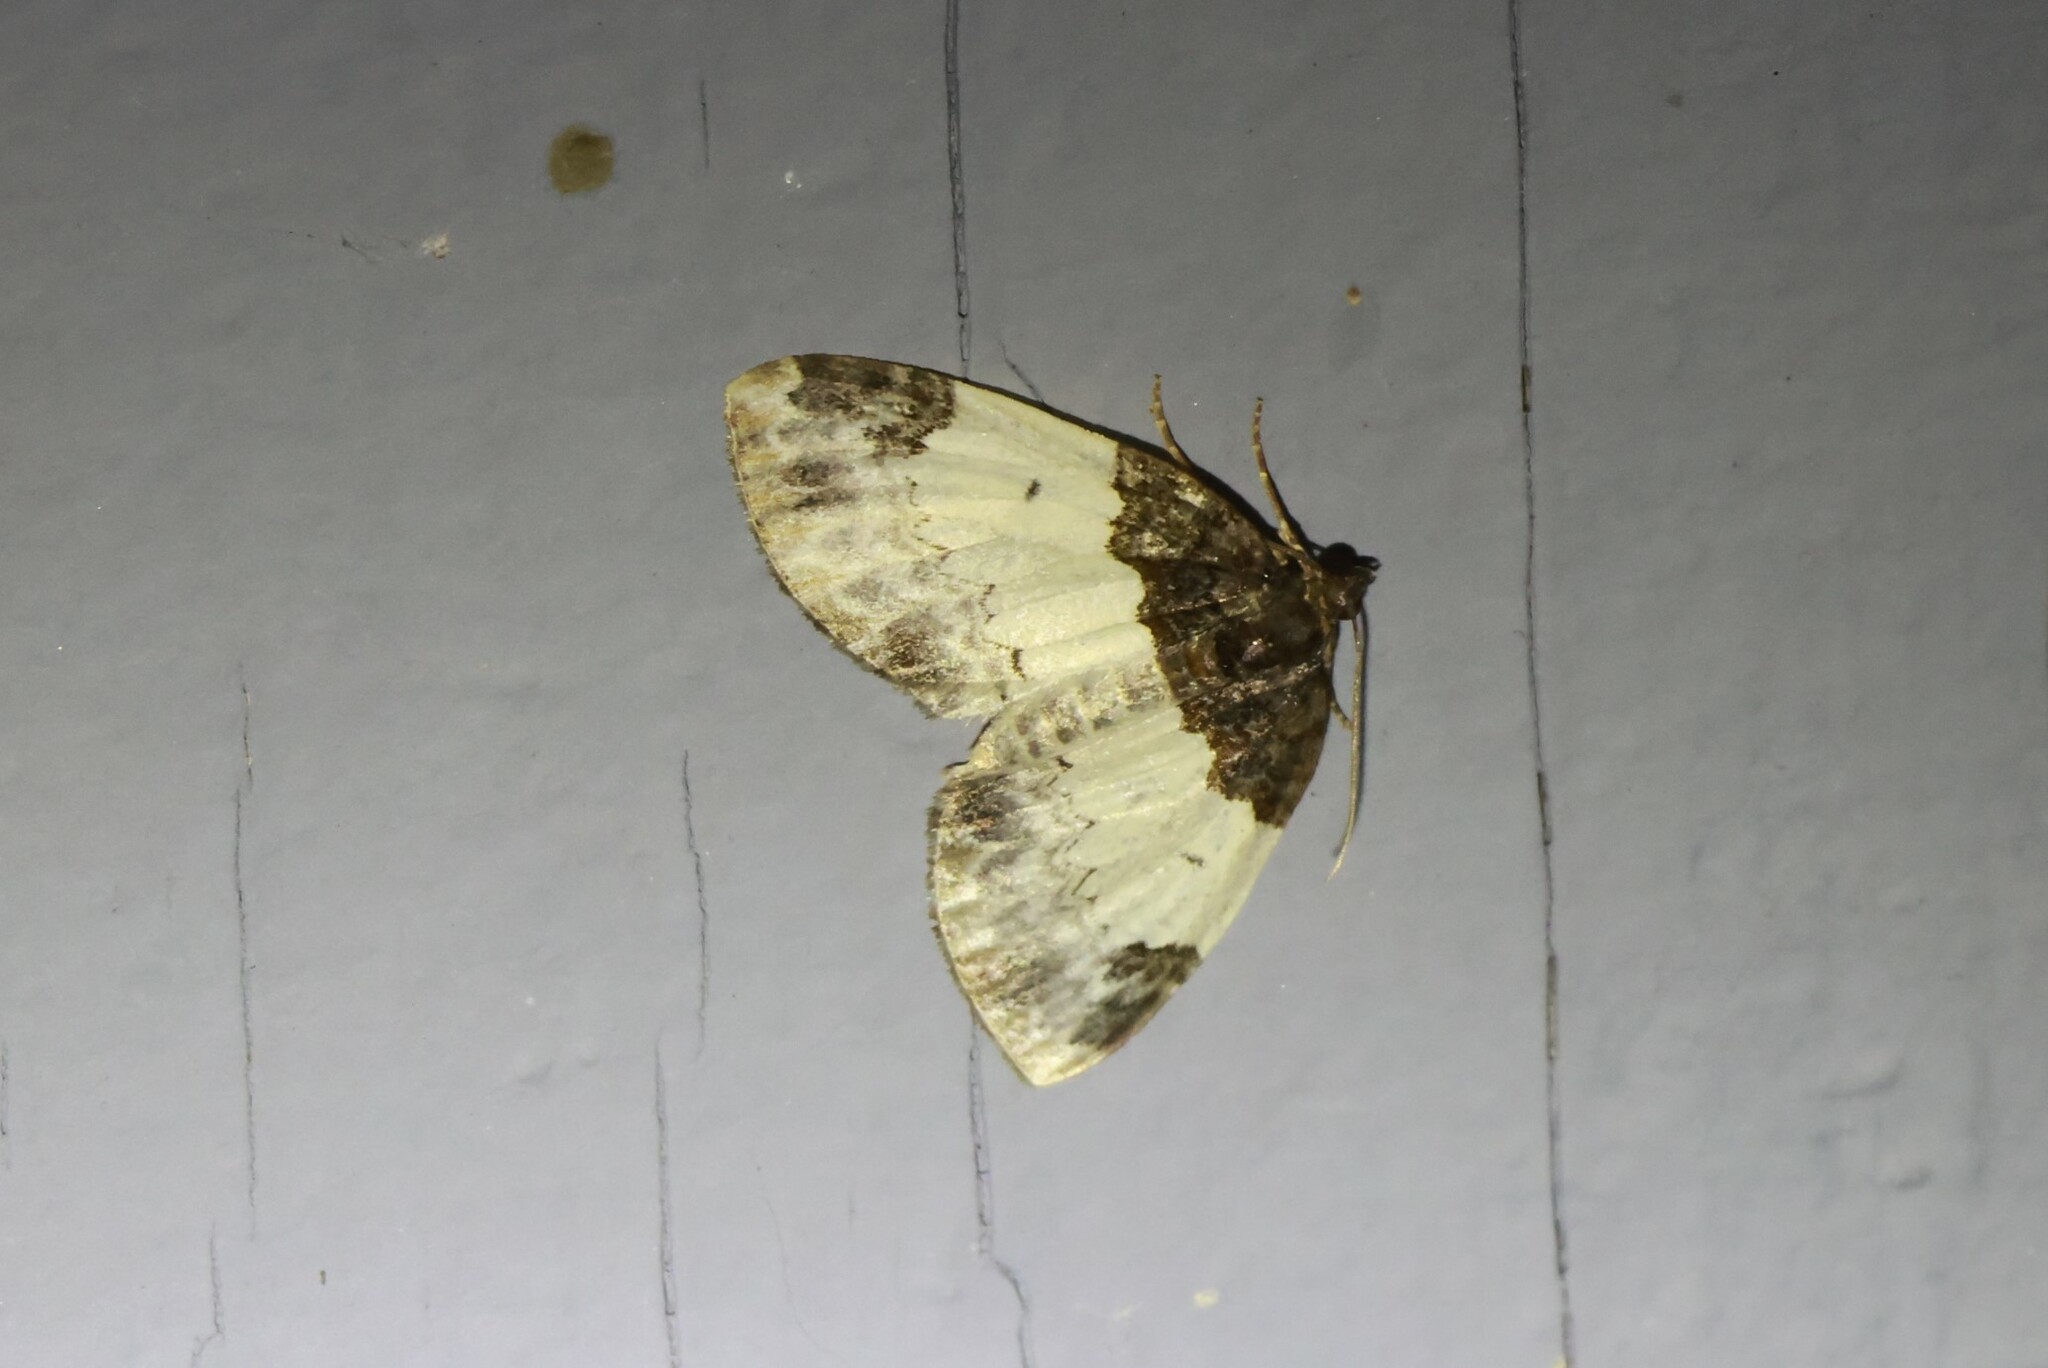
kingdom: Animalia
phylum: Arthropoda
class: Insecta
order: Lepidoptera
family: Geometridae
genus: Mesoleuca
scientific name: Mesoleuca ruficillata
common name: White-ribboned carpet moth
